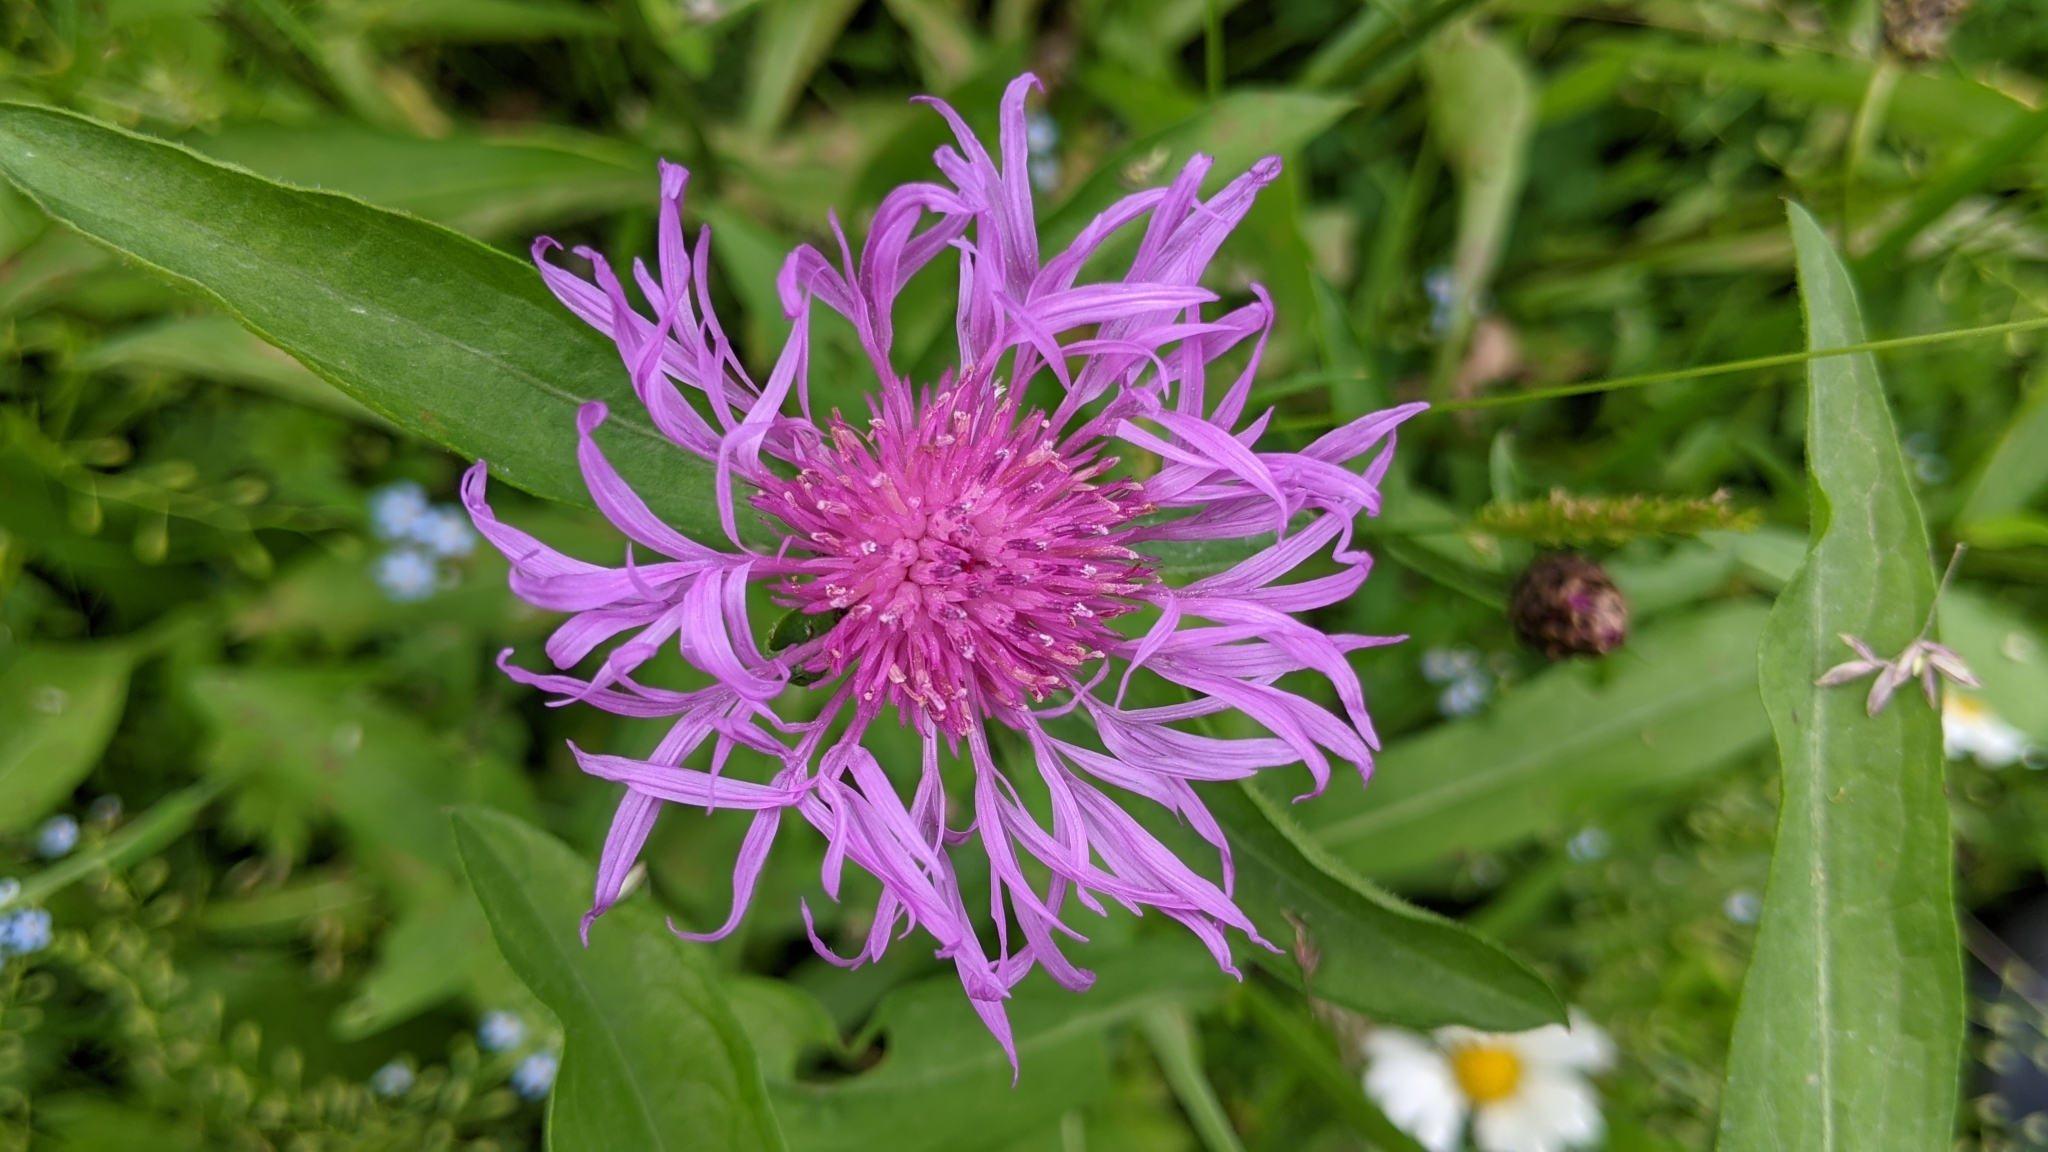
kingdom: Plantae
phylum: Tracheophyta
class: Magnoliopsida
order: Asterales
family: Asteraceae
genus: Centaurea
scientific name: Centaurea jacea
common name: Brown knapweed
